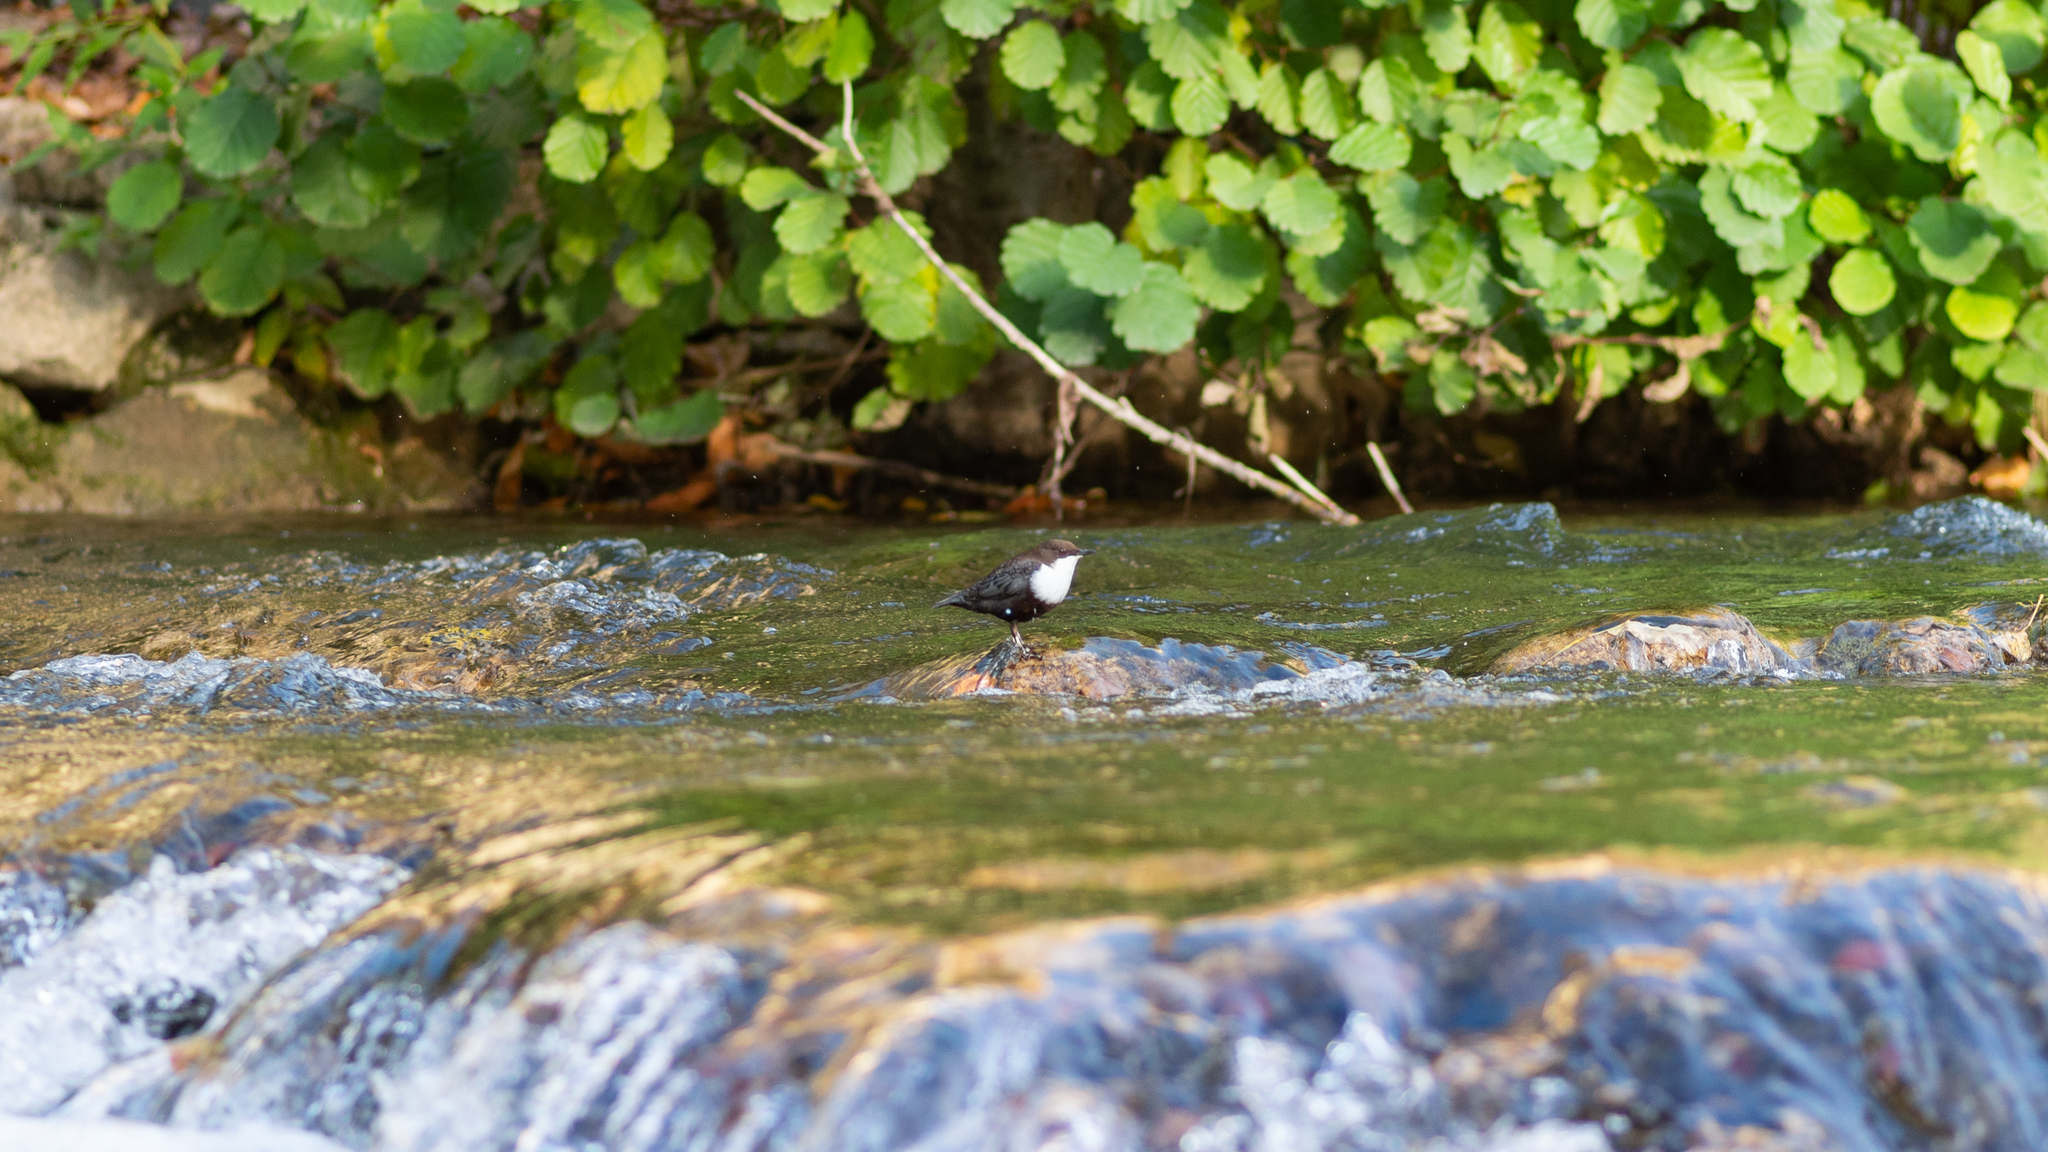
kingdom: Animalia
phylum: Chordata
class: Aves
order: Passeriformes
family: Cinclidae
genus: Cinclus
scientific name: Cinclus cinclus
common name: White-throated dipper
